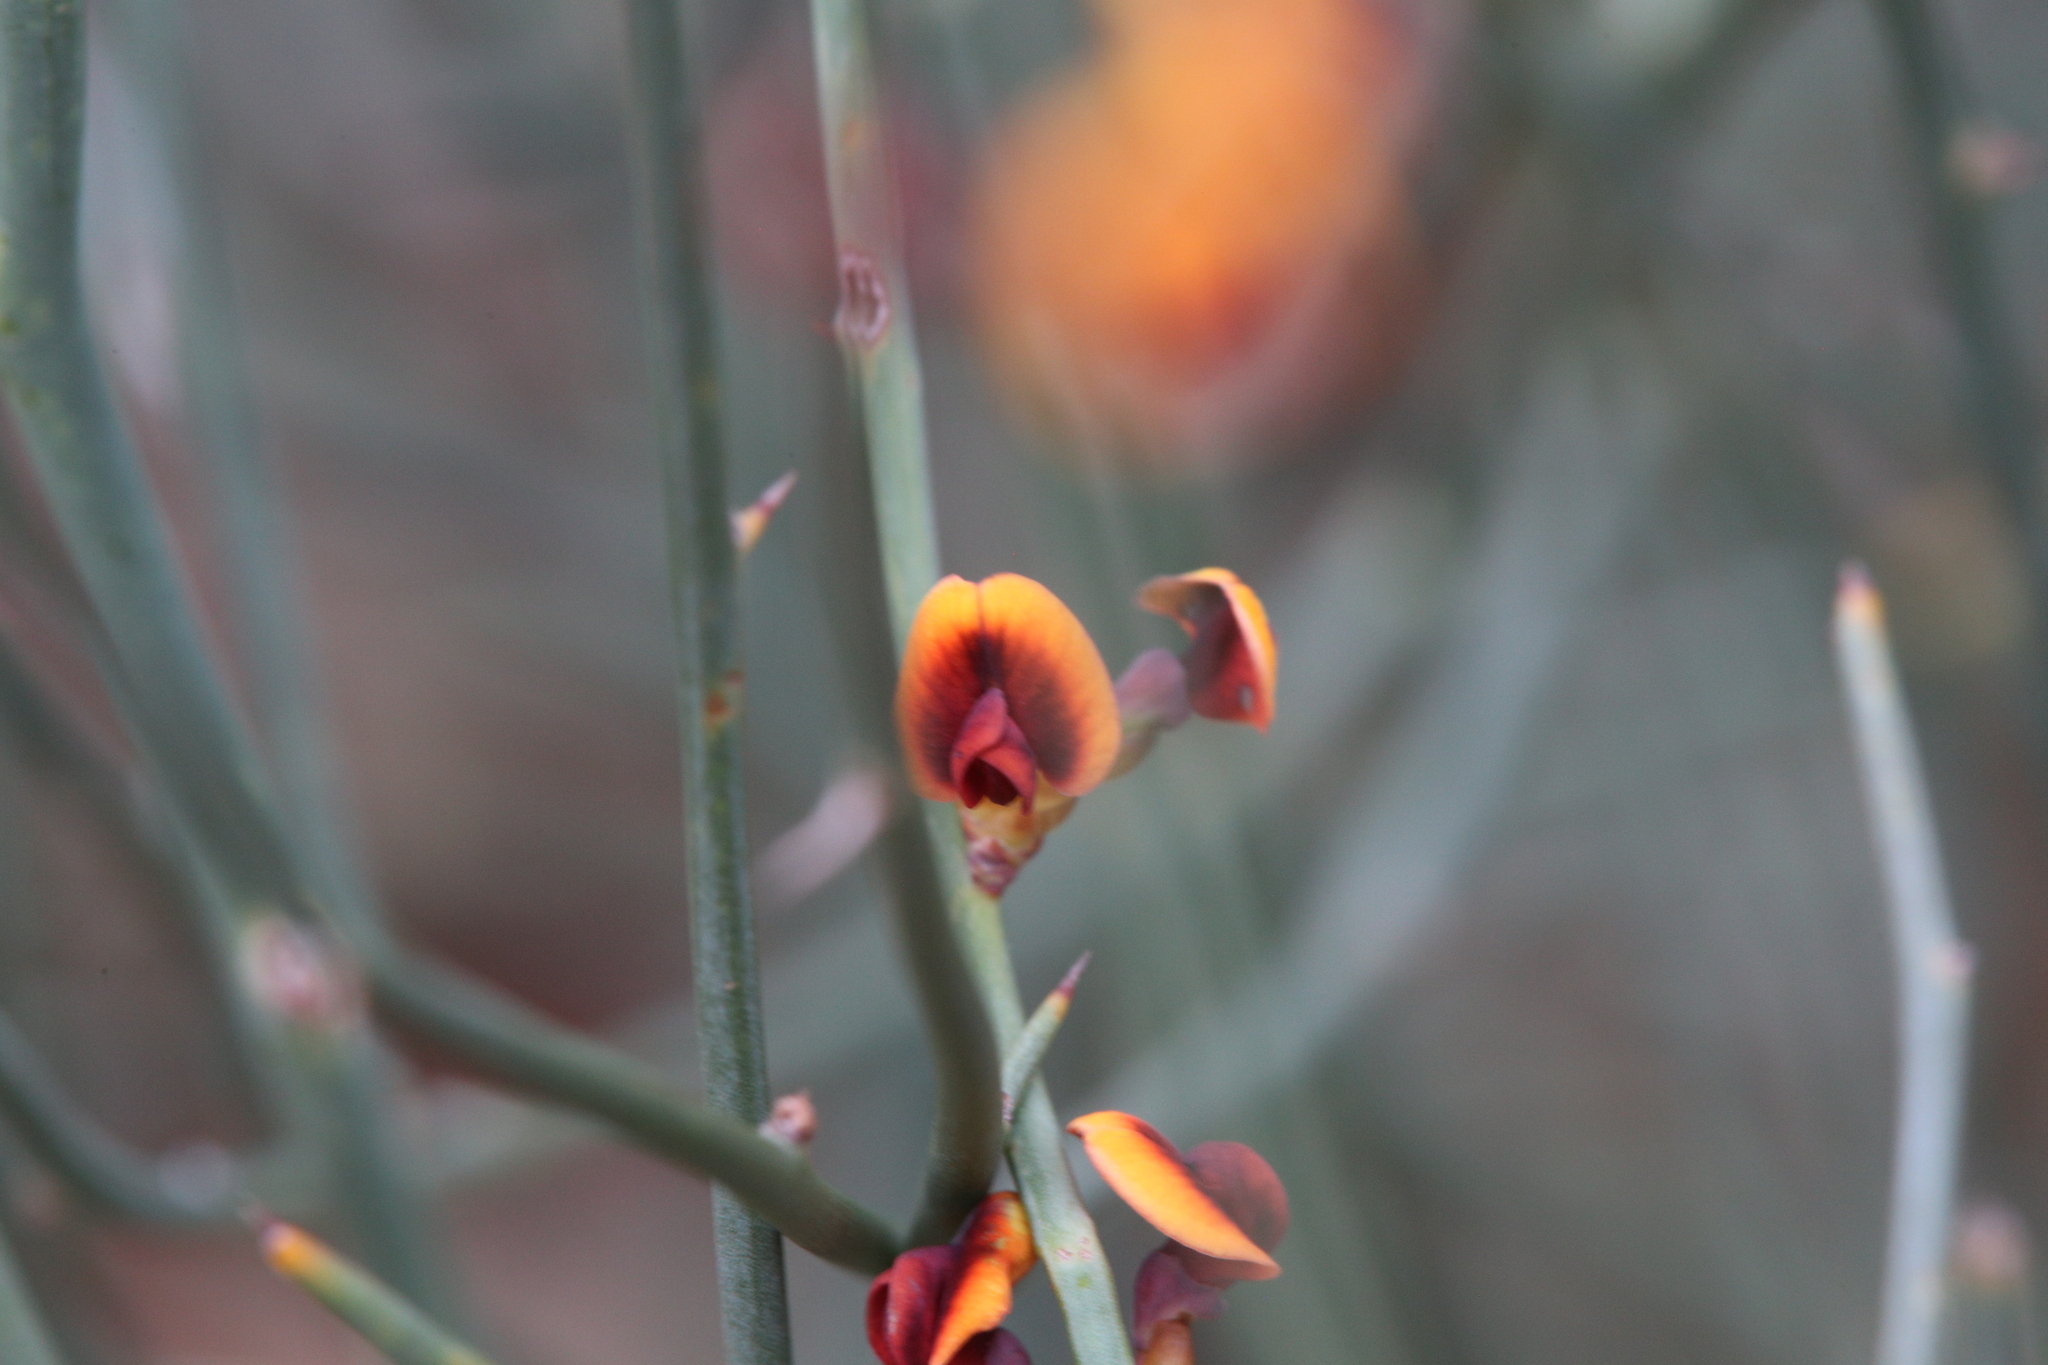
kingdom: Plantae
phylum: Tracheophyta
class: Magnoliopsida
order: Fabales
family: Fabaceae
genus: Daviesia
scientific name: Daviesia hakeoides
